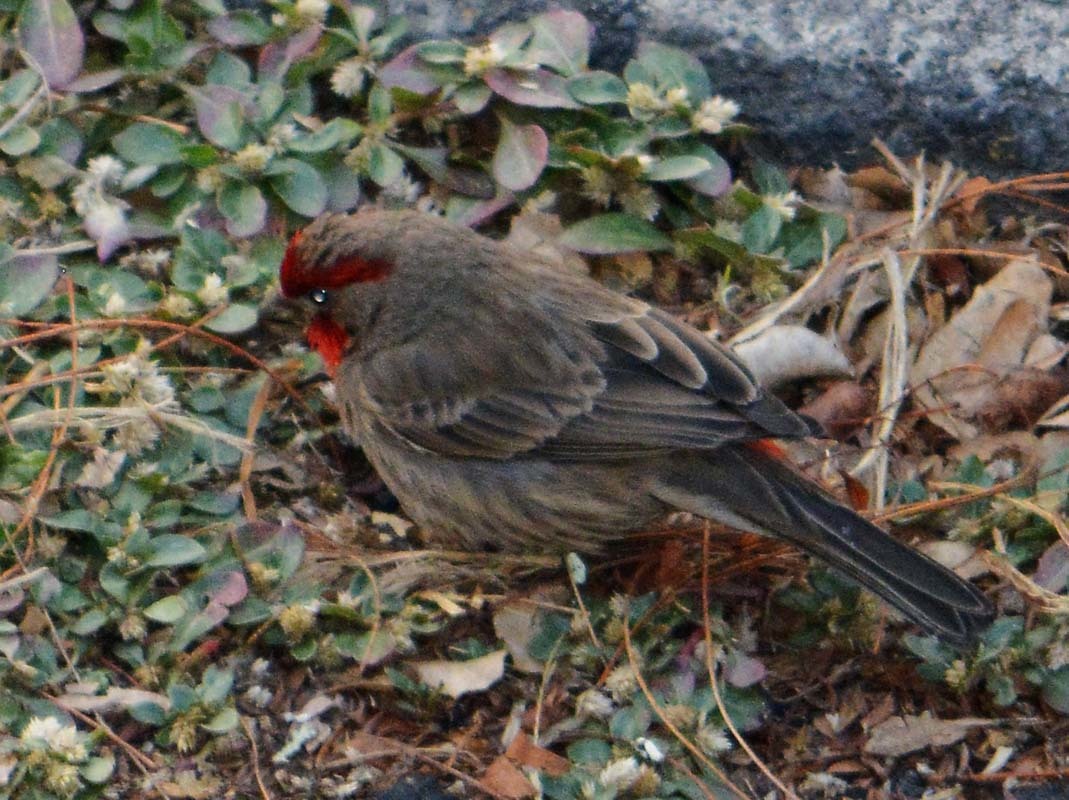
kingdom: Animalia
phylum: Chordata
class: Aves
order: Passeriformes
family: Fringillidae
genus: Haemorhous
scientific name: Haemorhous mexicanus
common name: House finch
